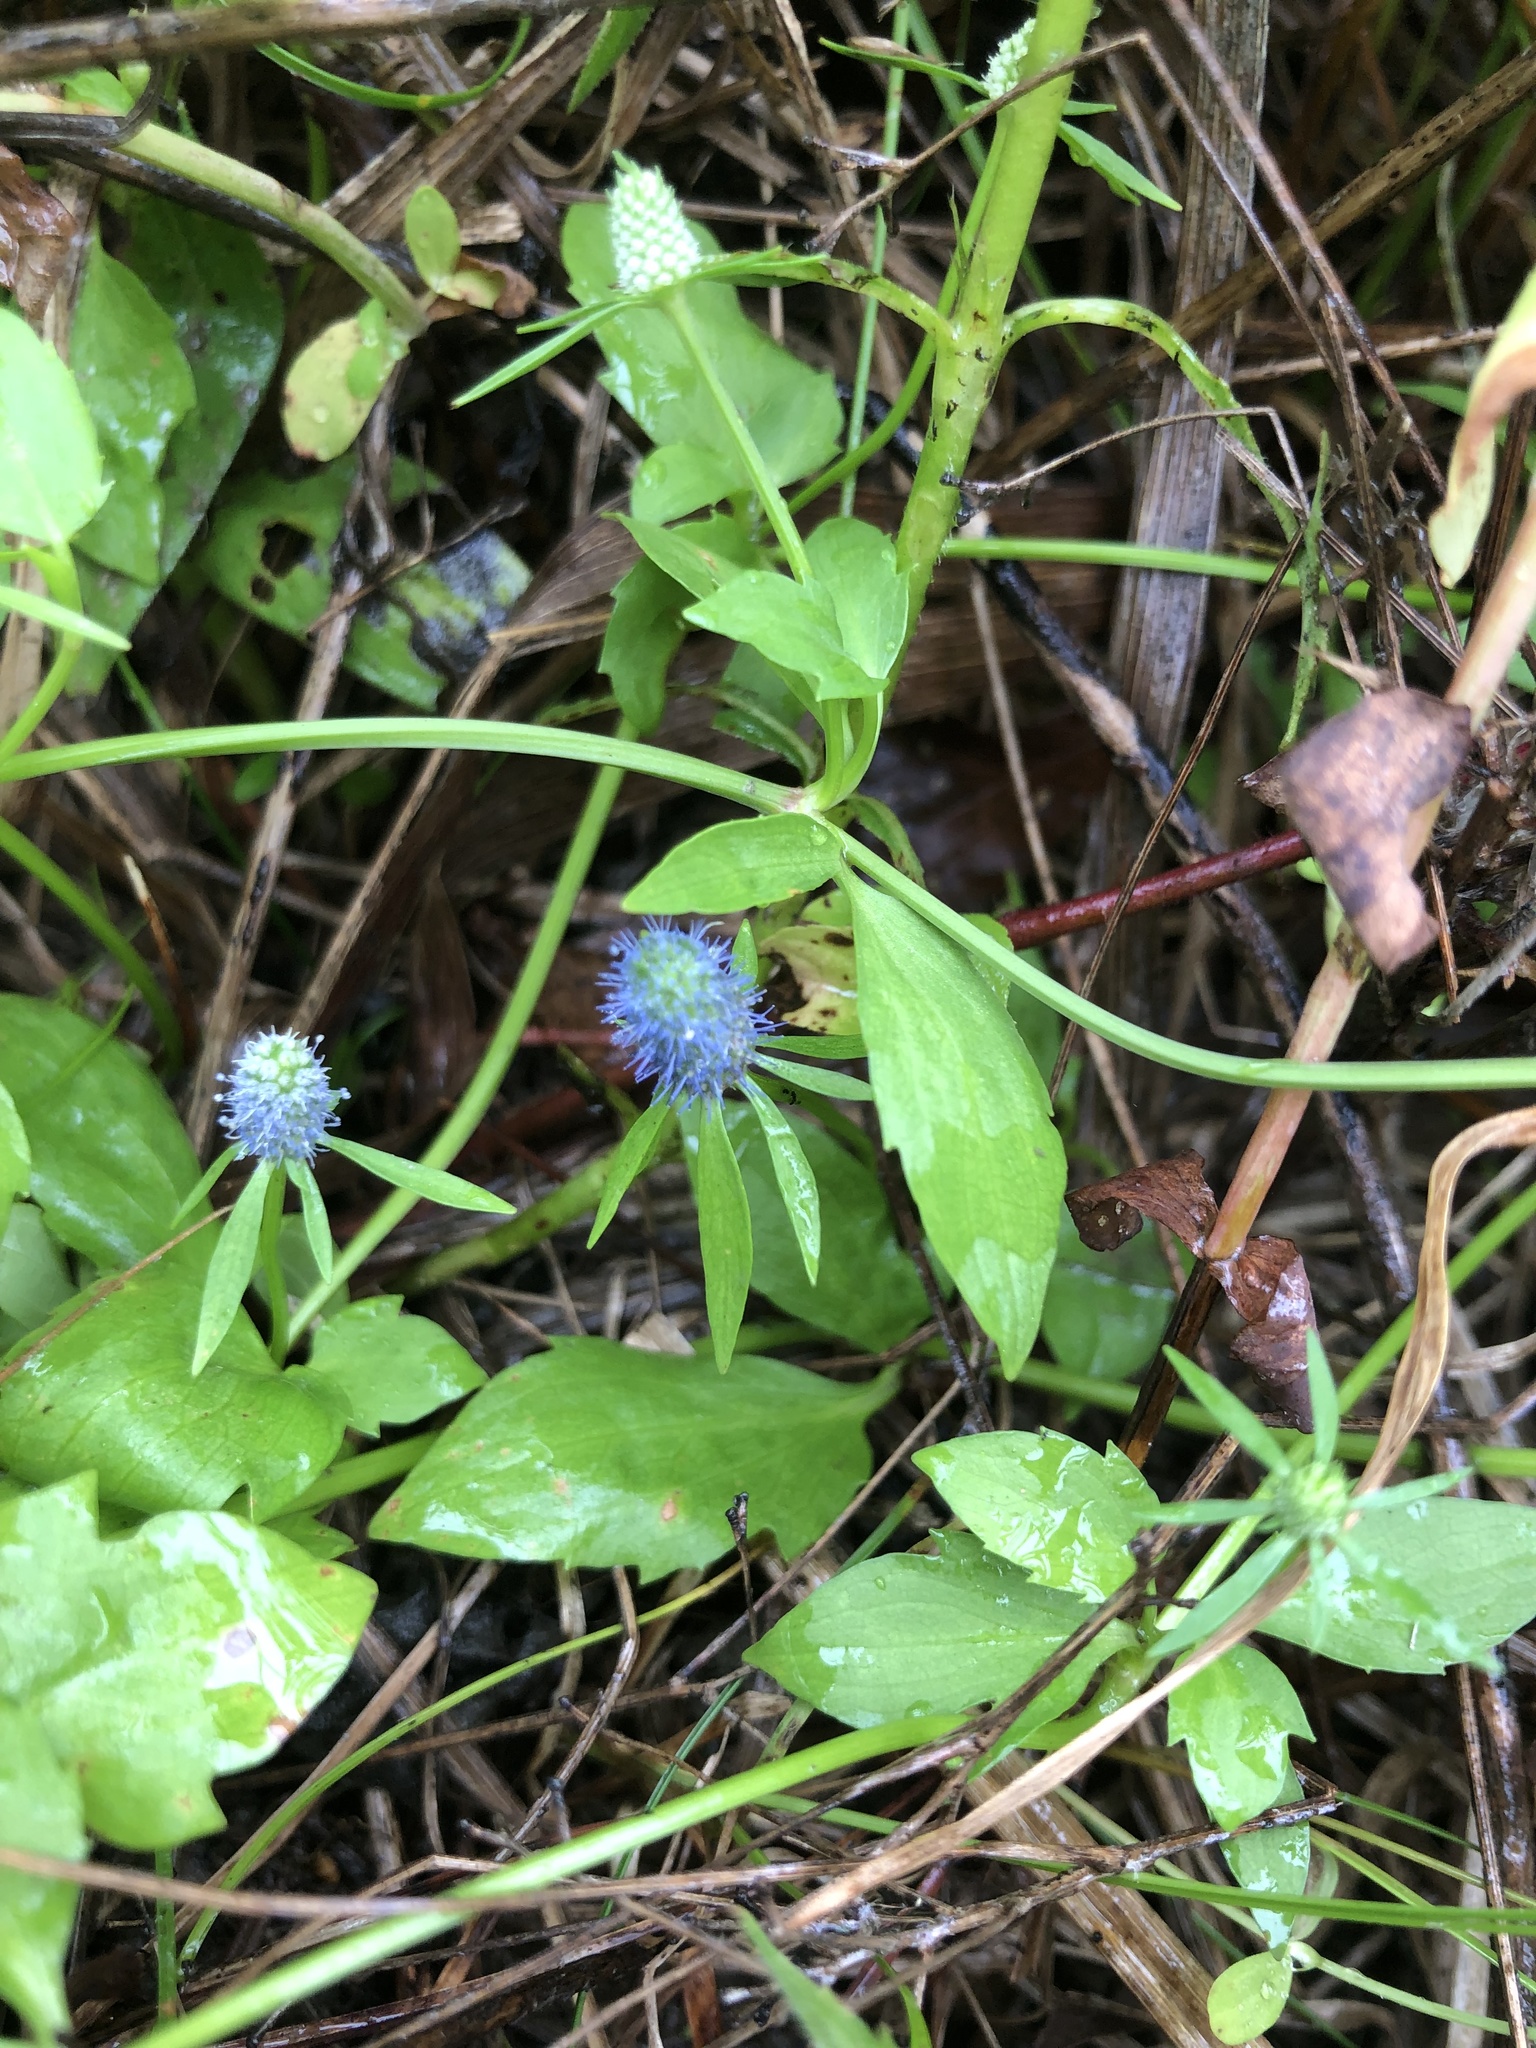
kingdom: Plantae
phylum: Tracheophyta
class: Magnoliopsida
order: Apiales
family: Apiaceae
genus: Eryngium
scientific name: Eryngium prostratum
